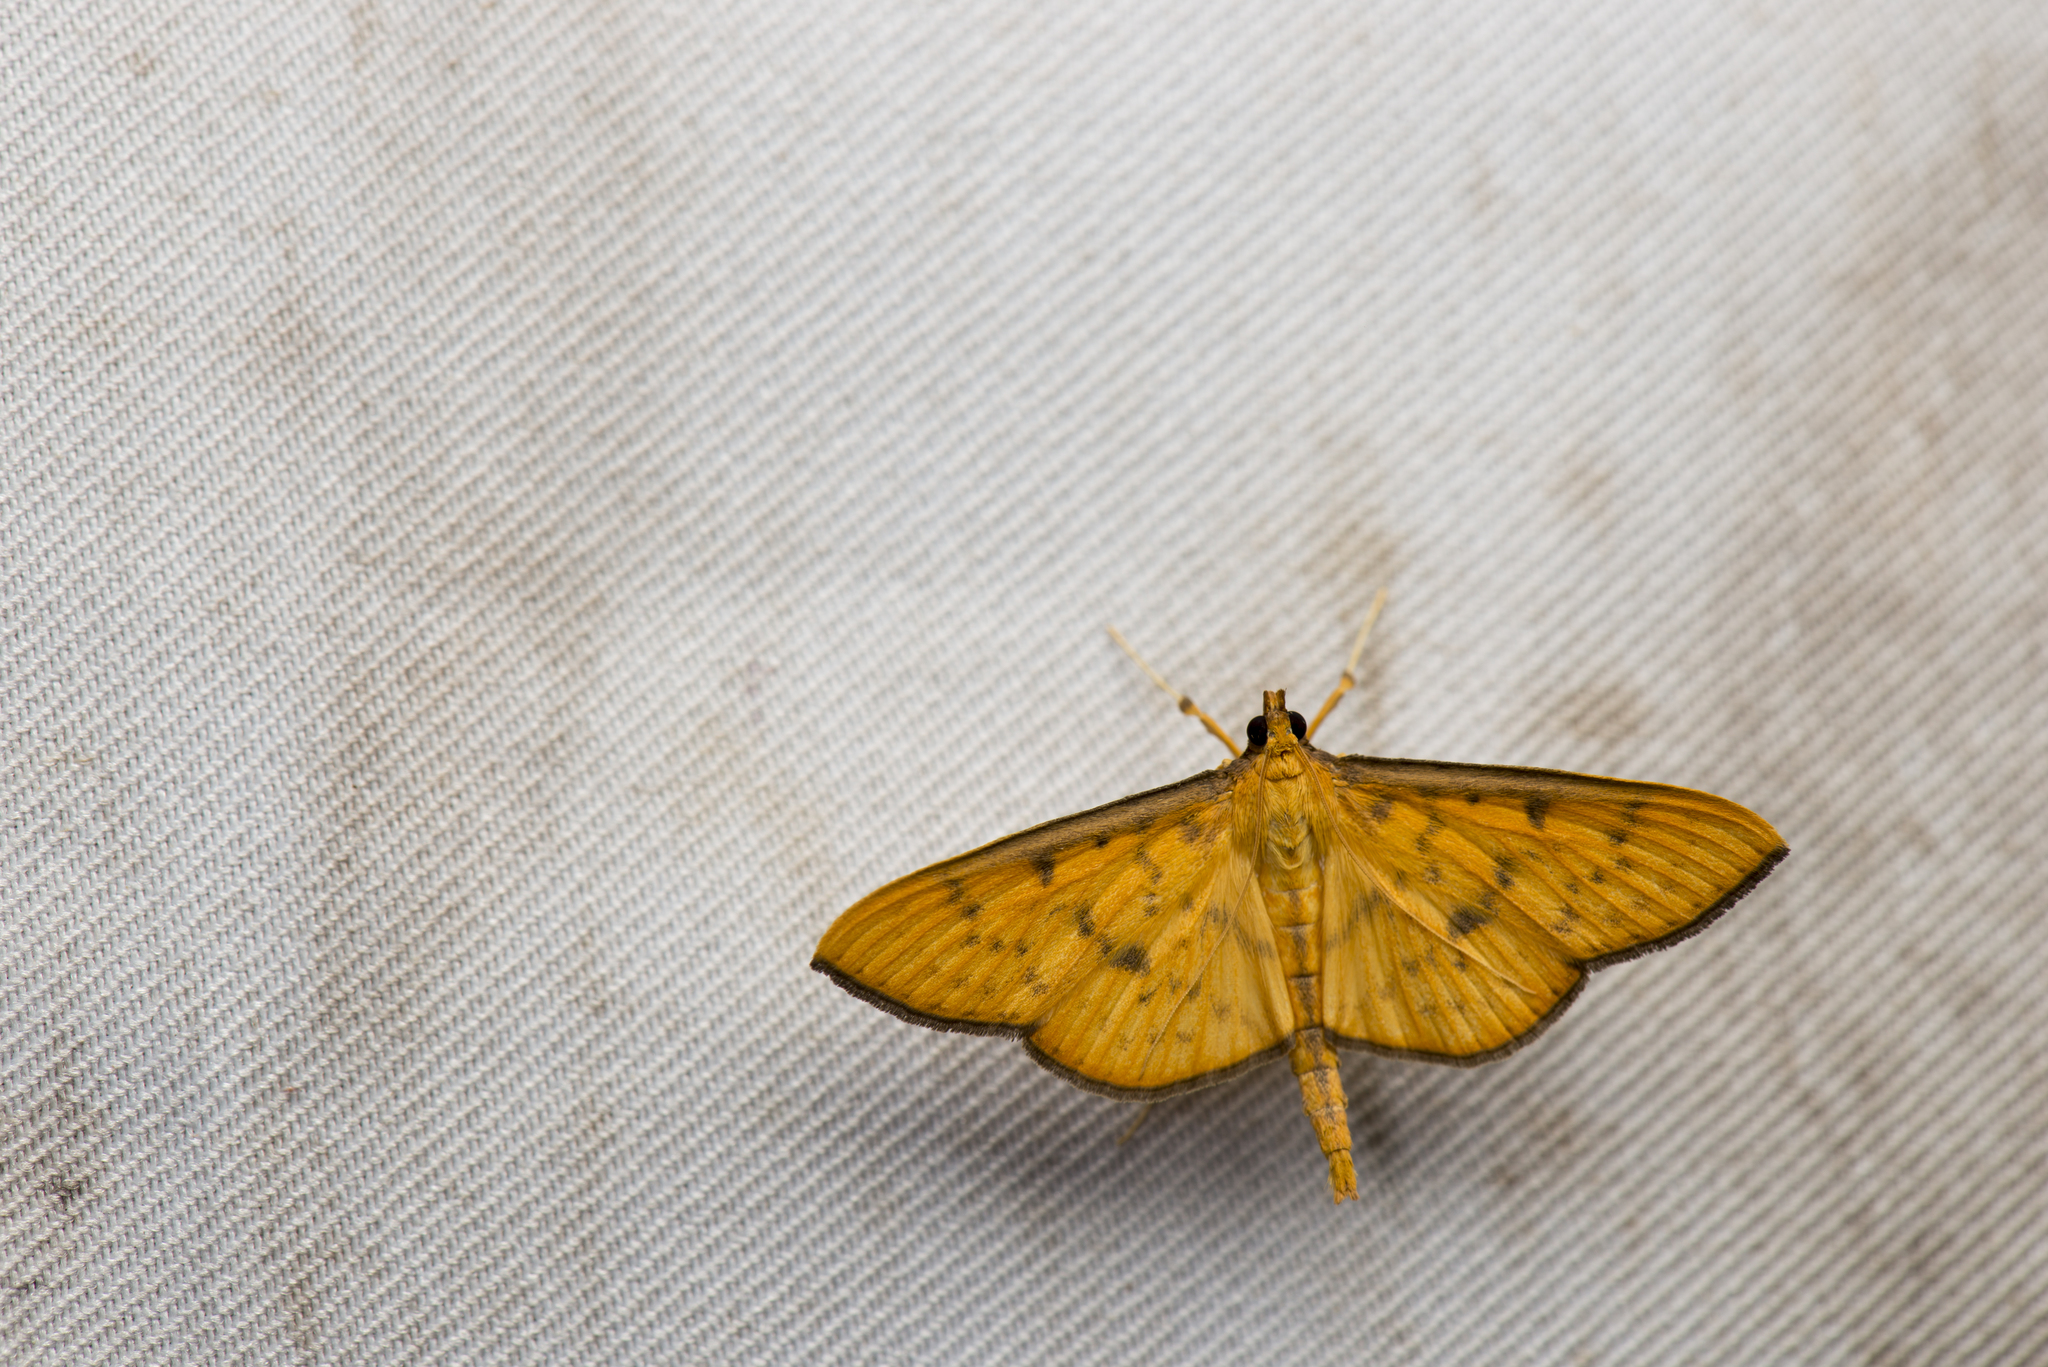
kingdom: Animalia
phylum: Arthropoda
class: Insecta
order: Lepidoptera
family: Crambidae
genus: Caldubotys
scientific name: Caldubotys caldusalis
